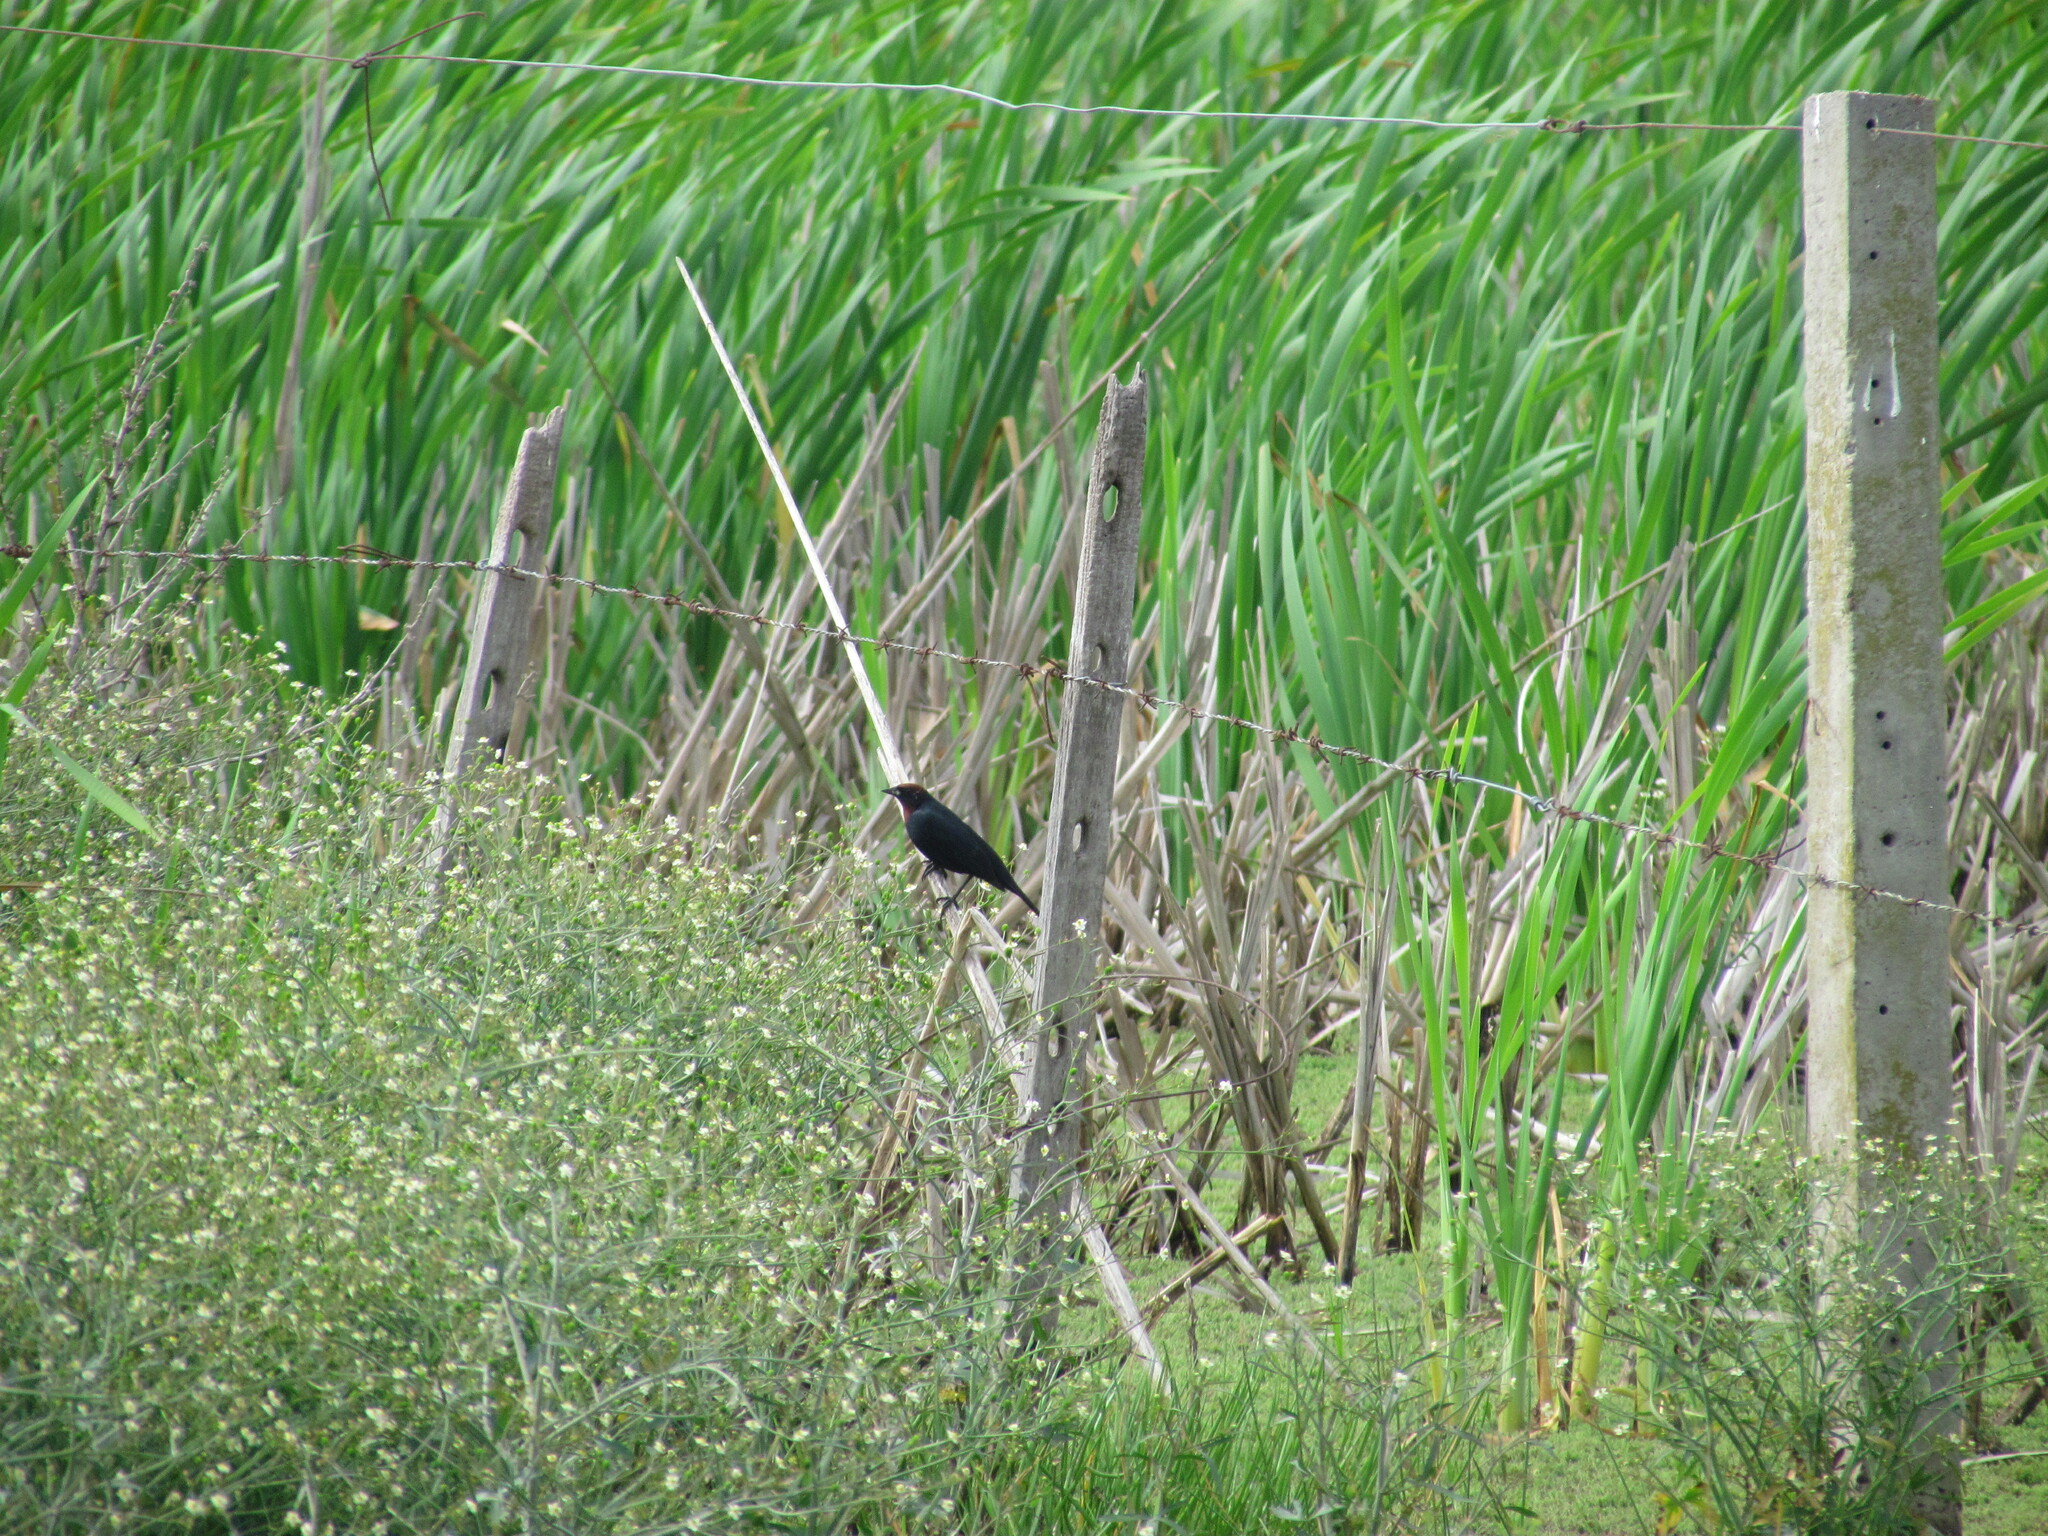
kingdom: Animalia
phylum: Chordata
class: Aves
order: Passeriformes
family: Icteridae
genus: Chrysomus
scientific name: Chrysomus ruficapillus
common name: Chestnut-capped blackbird
